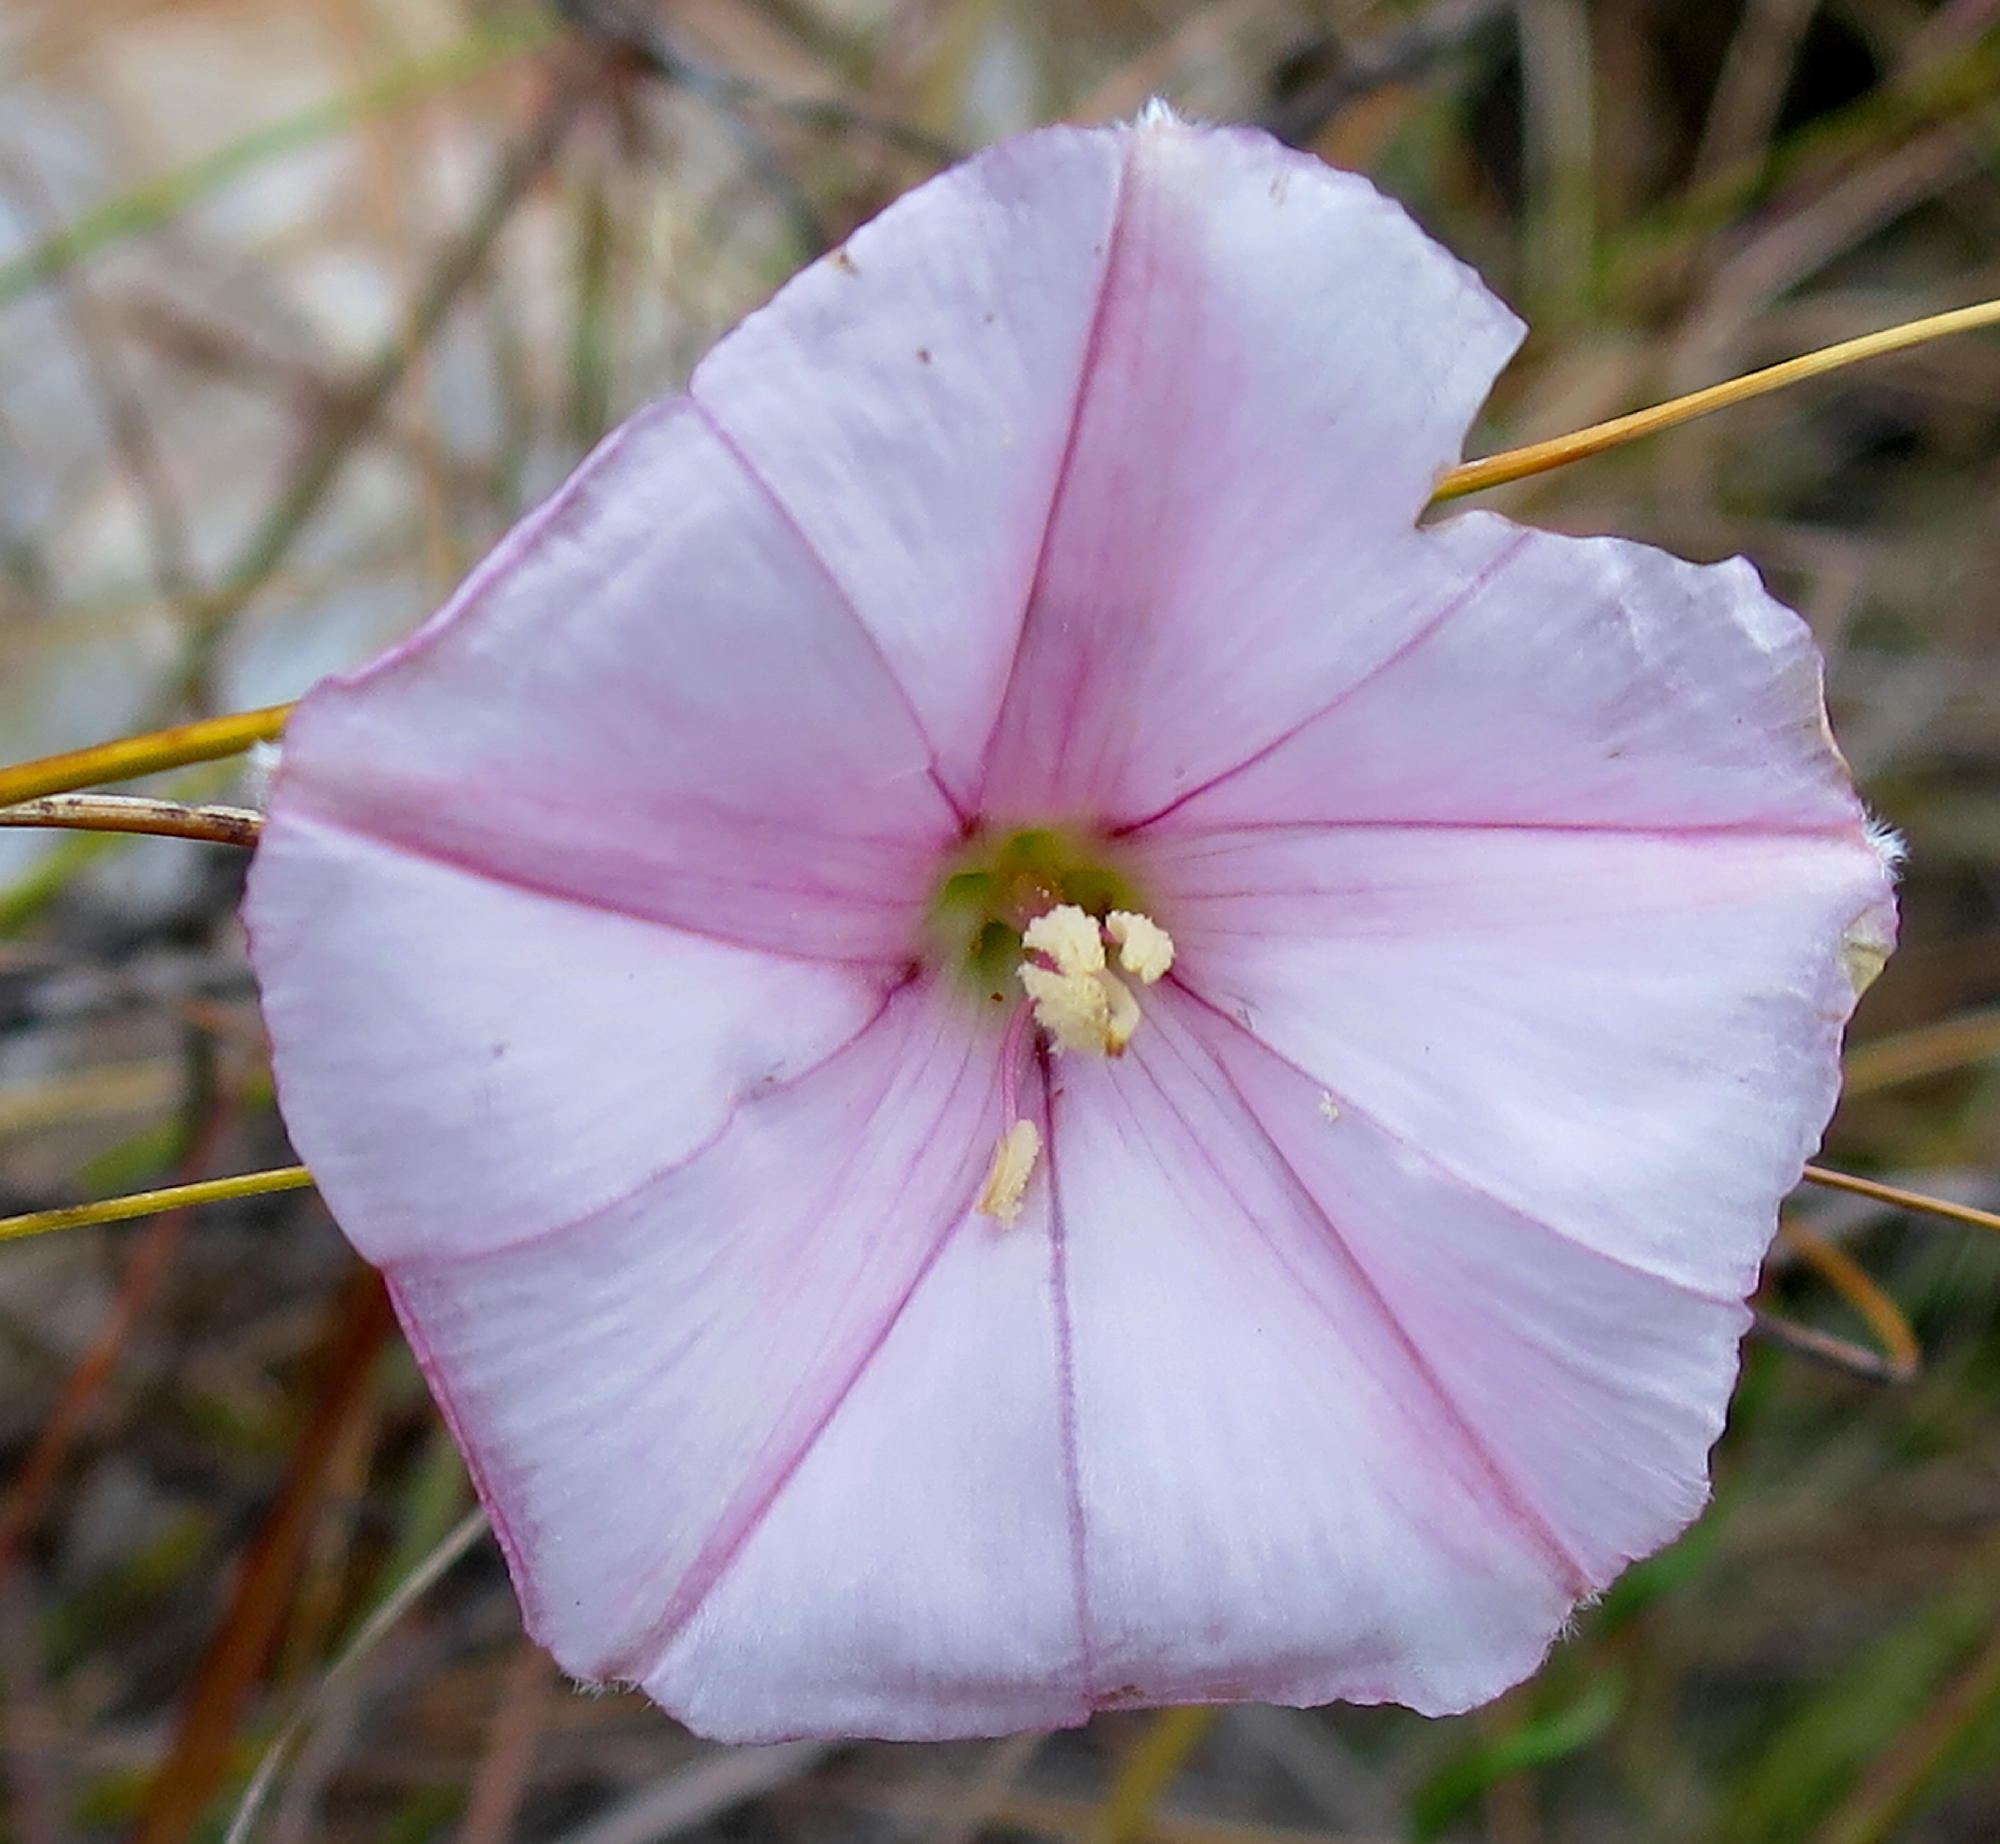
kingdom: Plantae
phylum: Tracheophyta
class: Magnoliopsida
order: Solanales
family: Convolvulaceae
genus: Convolvulus
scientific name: Convolvulus capensis
